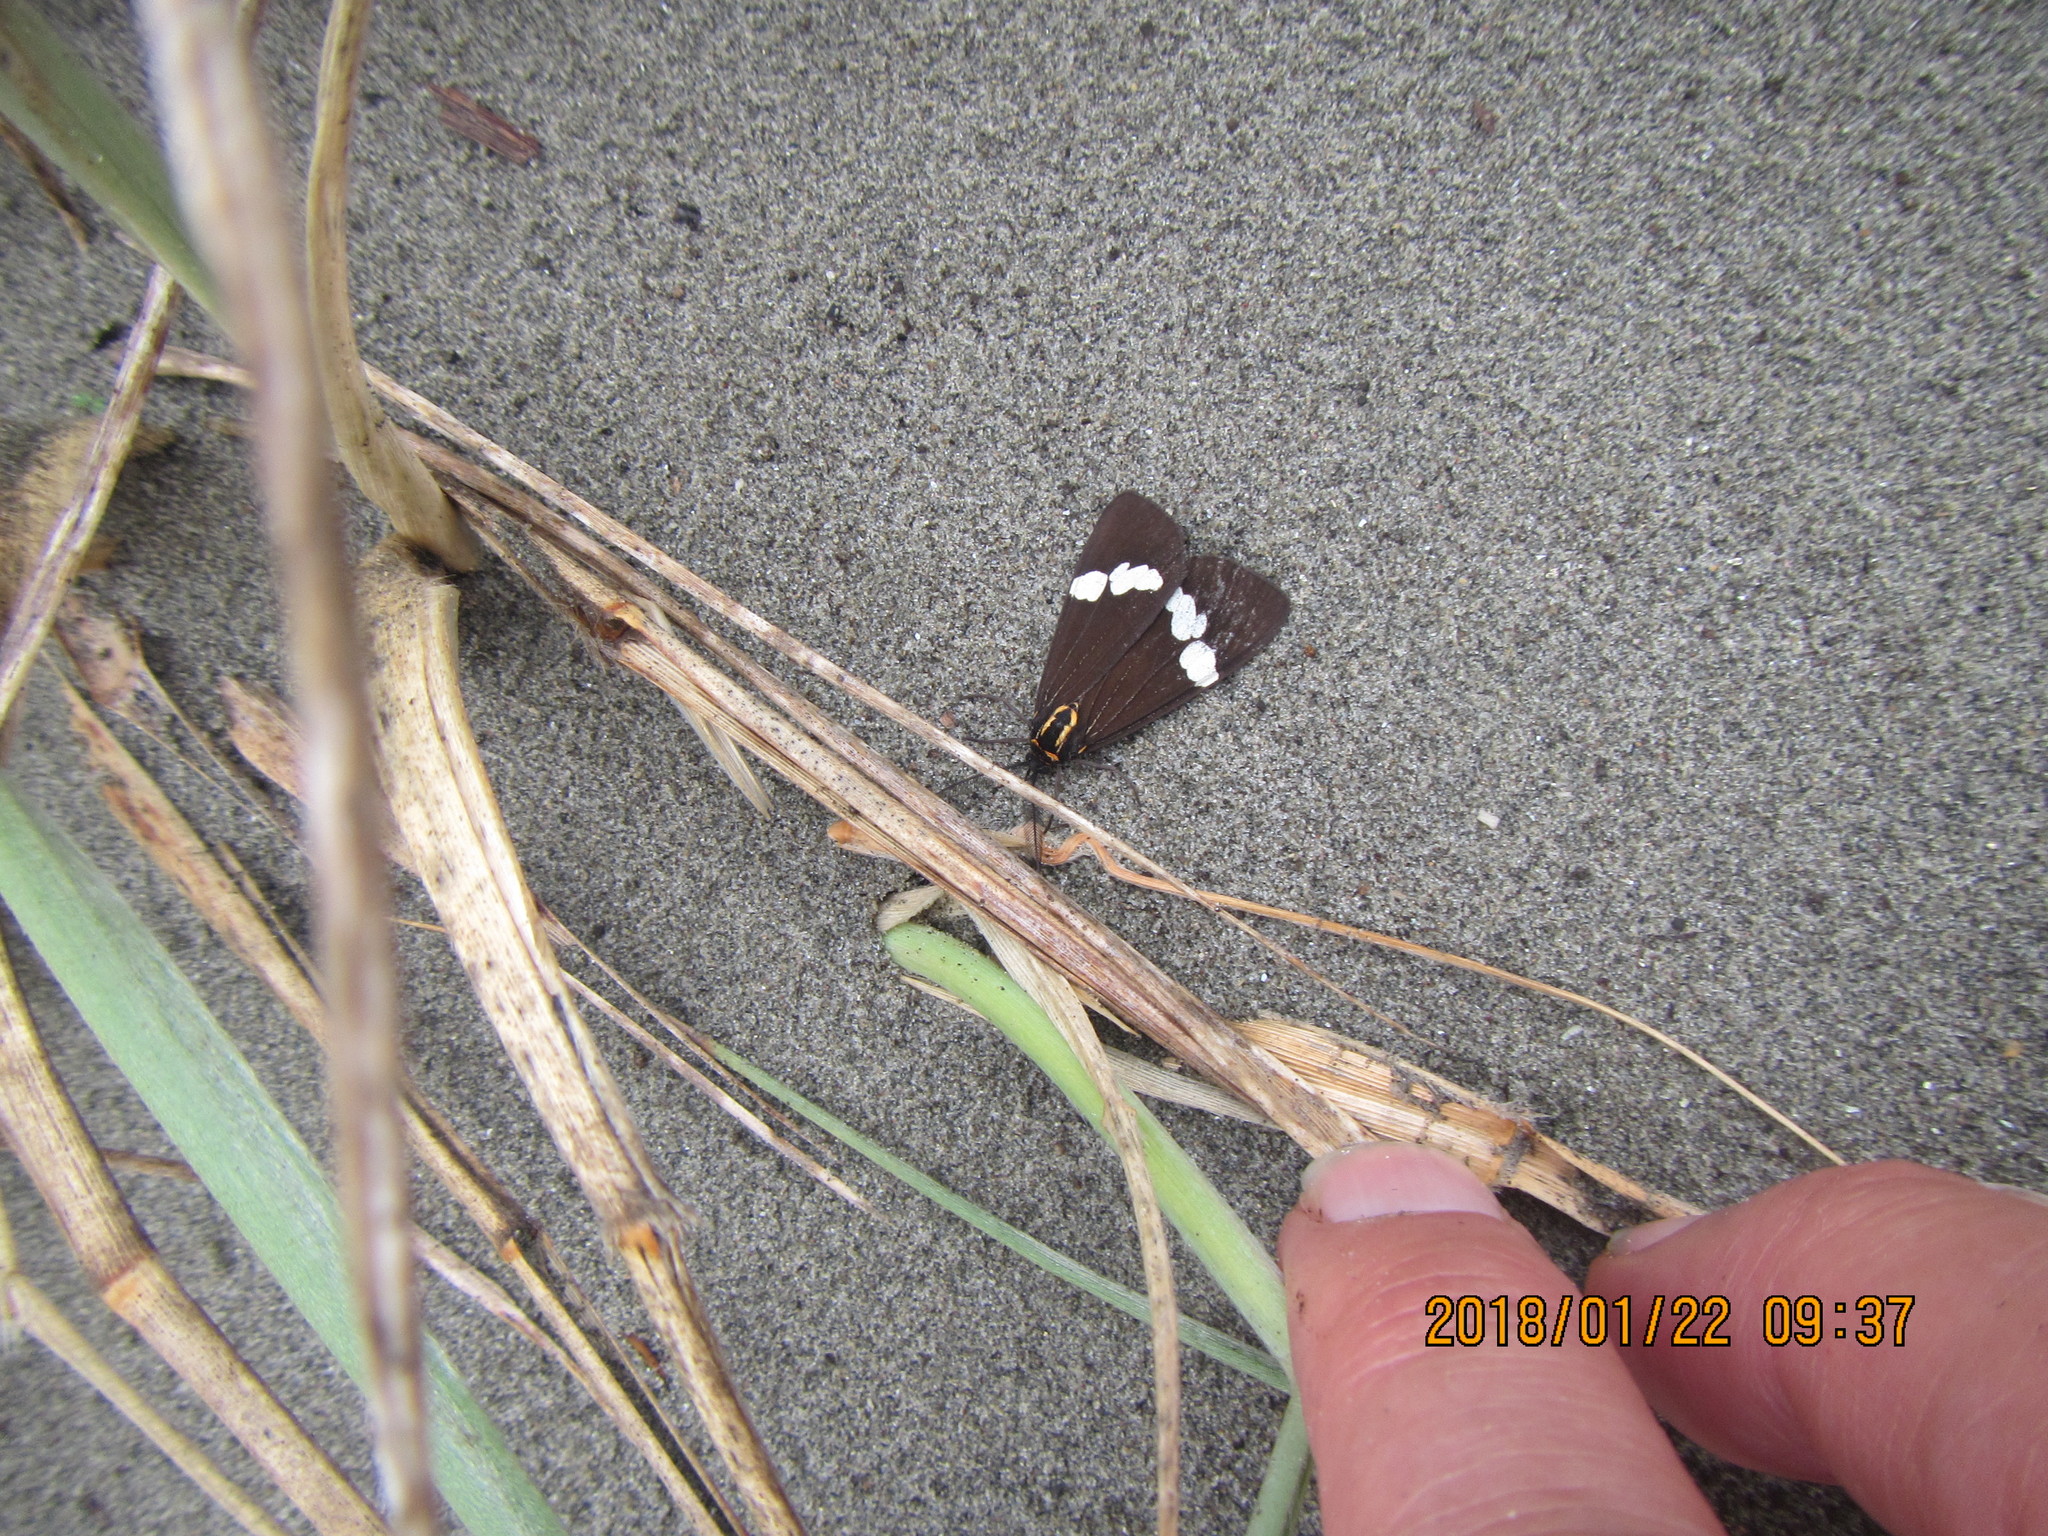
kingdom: Animalia
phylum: Arthropoda
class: Insecta
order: Lepidoptera
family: Erebidae
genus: Nyctemera
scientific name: Nyctemera annulatum
